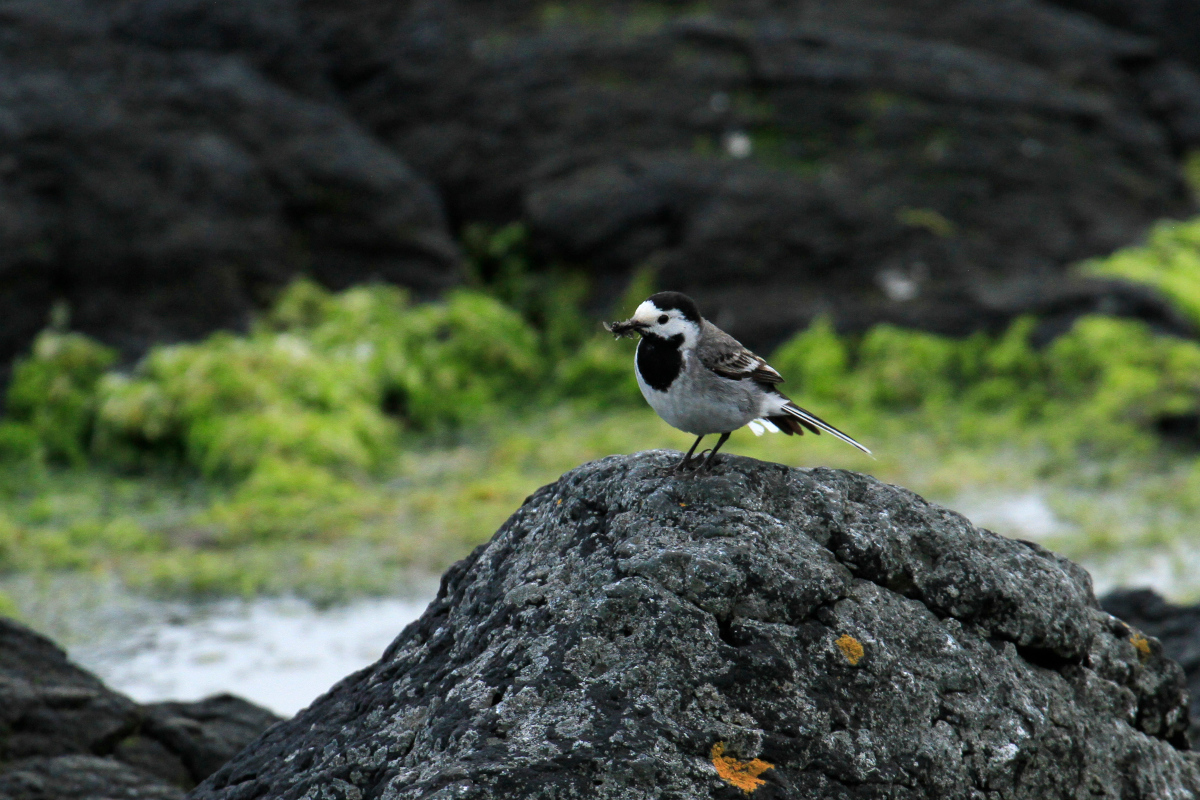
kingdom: Animalia
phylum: Chordata
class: Aves
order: Passeriformes
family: Motacillidae
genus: Motacilla
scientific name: Motacilla alba
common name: White wagtail
